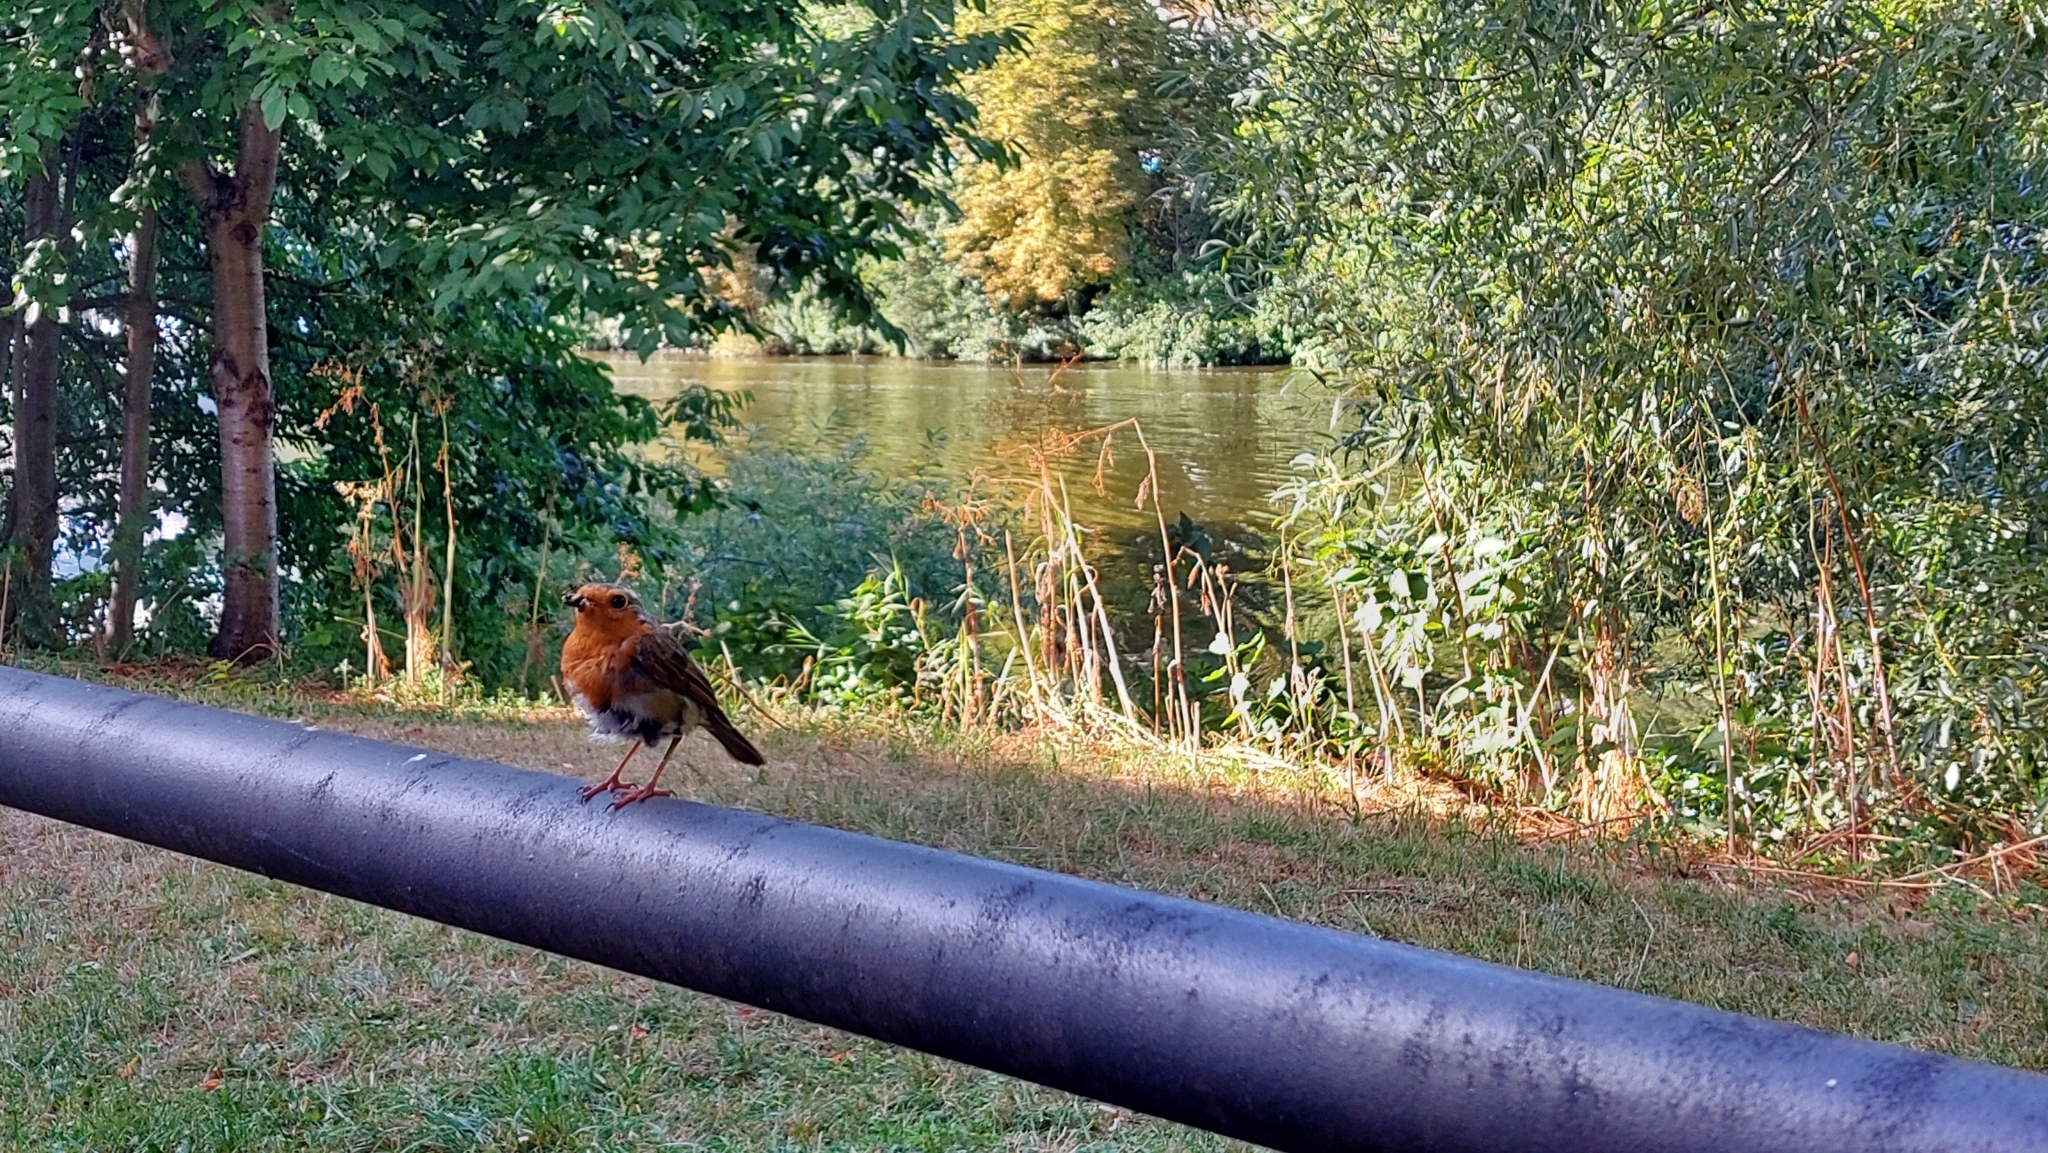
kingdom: Animalia
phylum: Chordata
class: Aves
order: Passeriformes
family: Muscicapidae
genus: Erithacus
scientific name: Erithacus rubecula
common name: European robin
